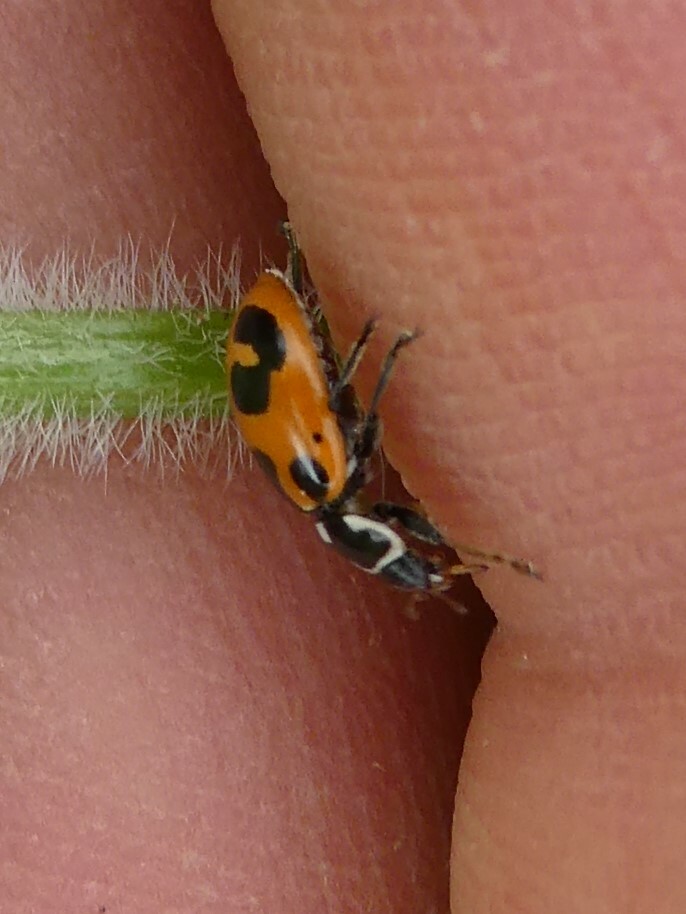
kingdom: Animalia
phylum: Arthropoda
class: Insecta
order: Coleoptera
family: Coccinellidae
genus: Hippodamia
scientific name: Hippodamia parenthesis
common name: Parenthesis lady beetle
